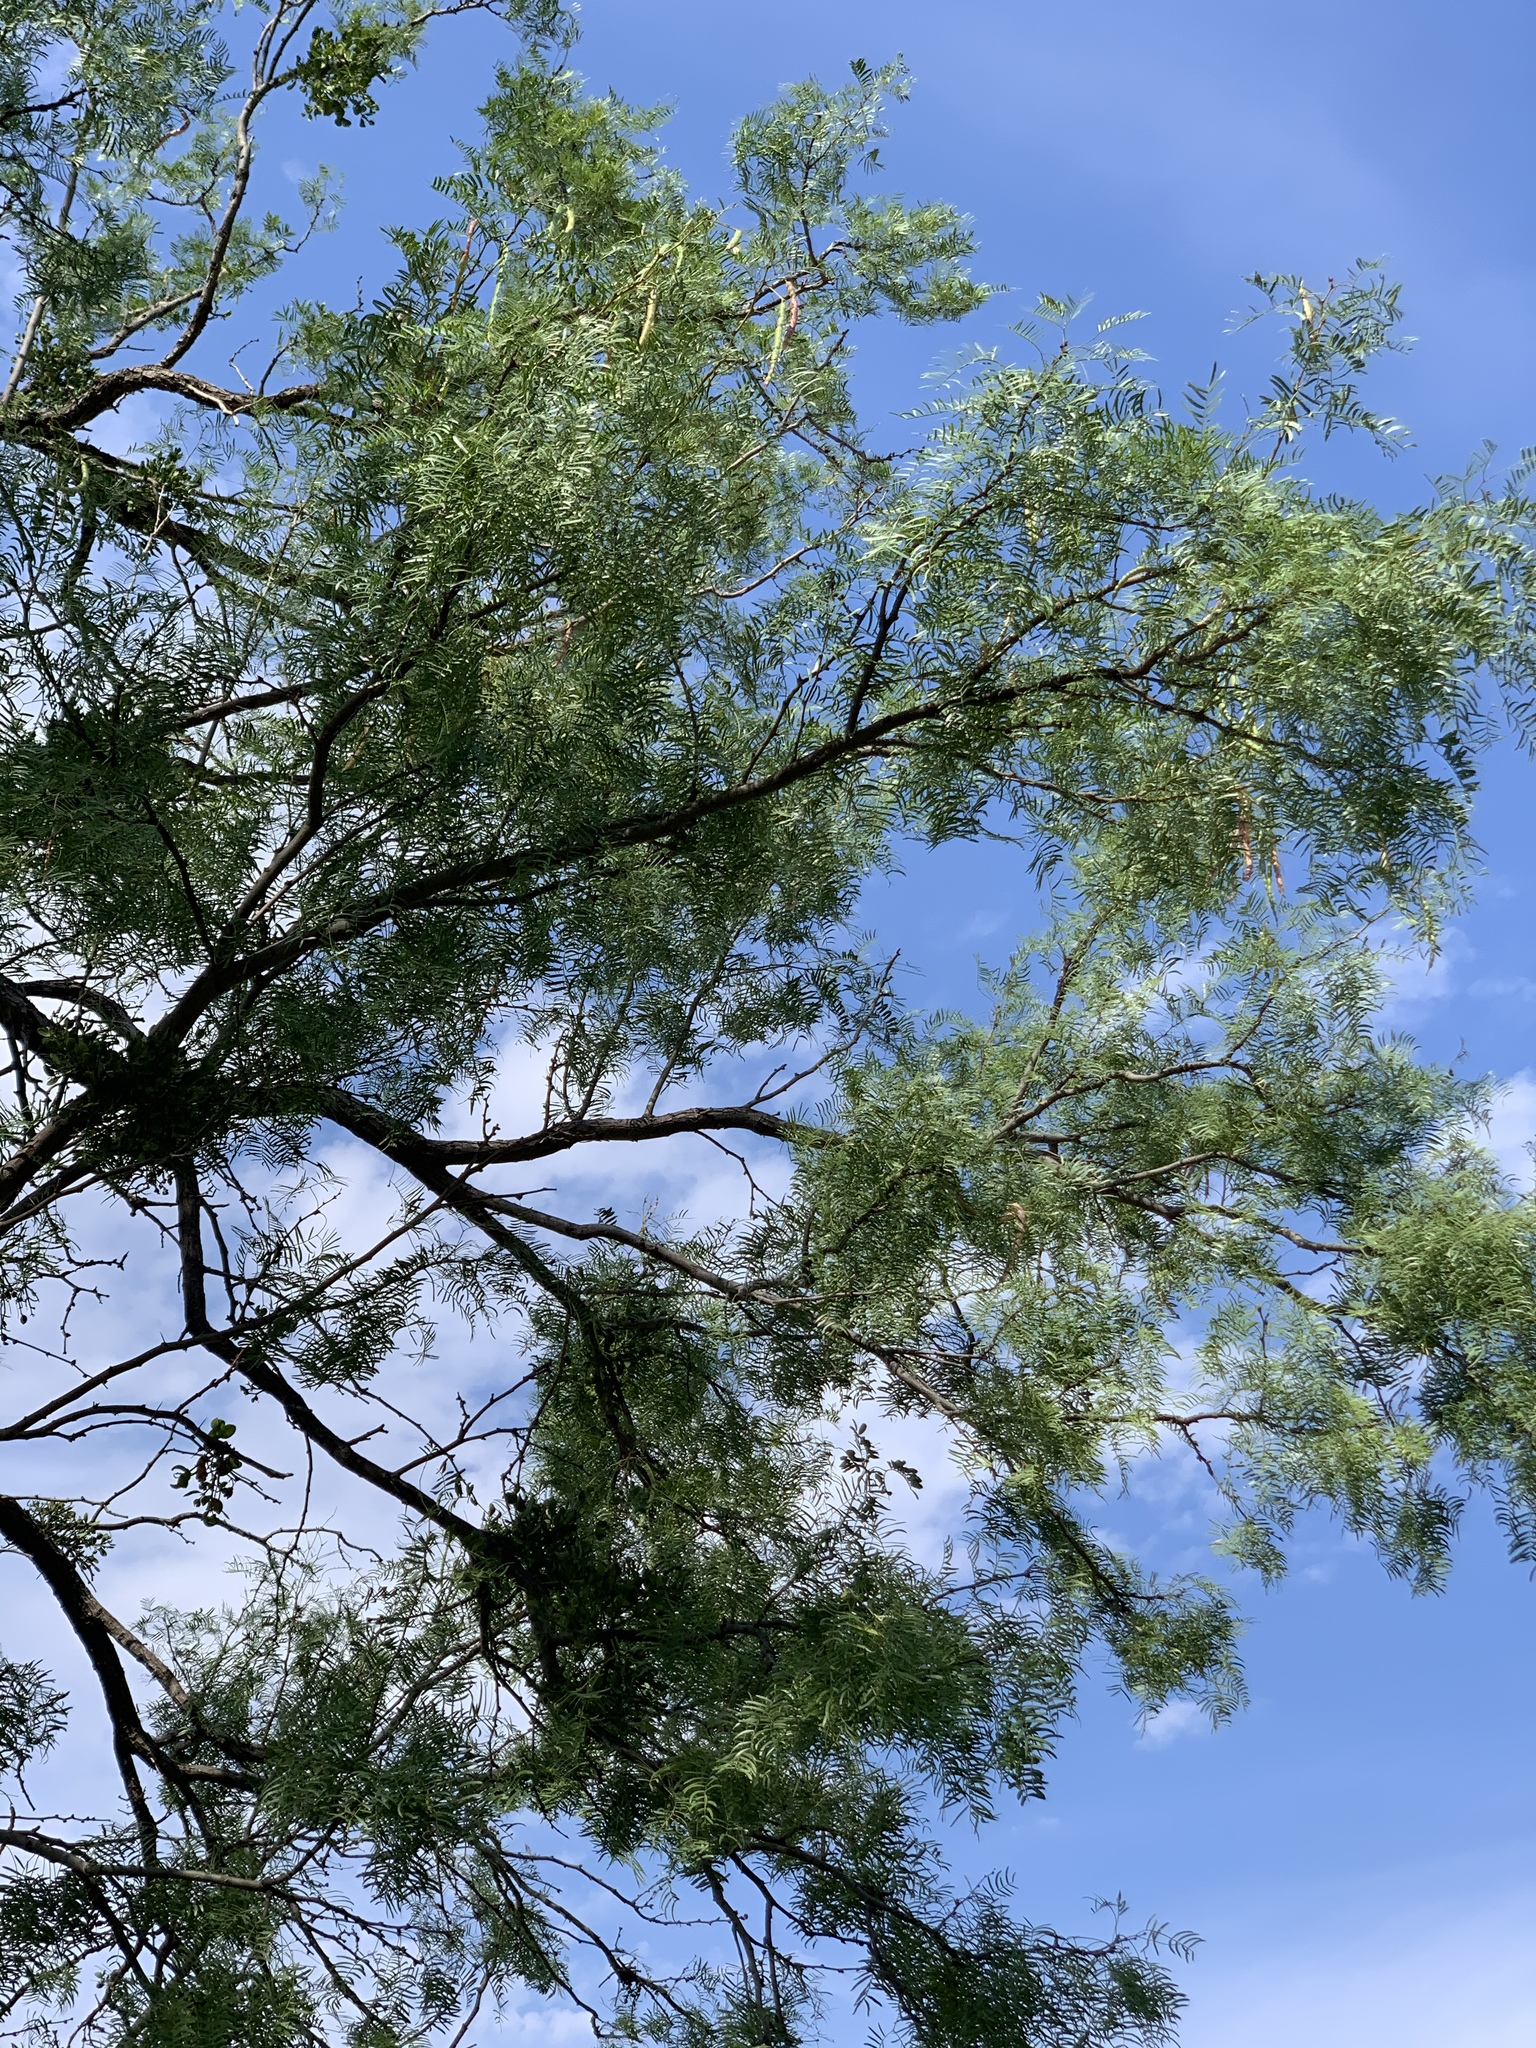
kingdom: Plantae
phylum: Tracheophyta
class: Magnoliopsida
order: Fabales
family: Fabaceae
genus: Prosopis
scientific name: Prosopis glandulosa
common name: Honey mesquite
